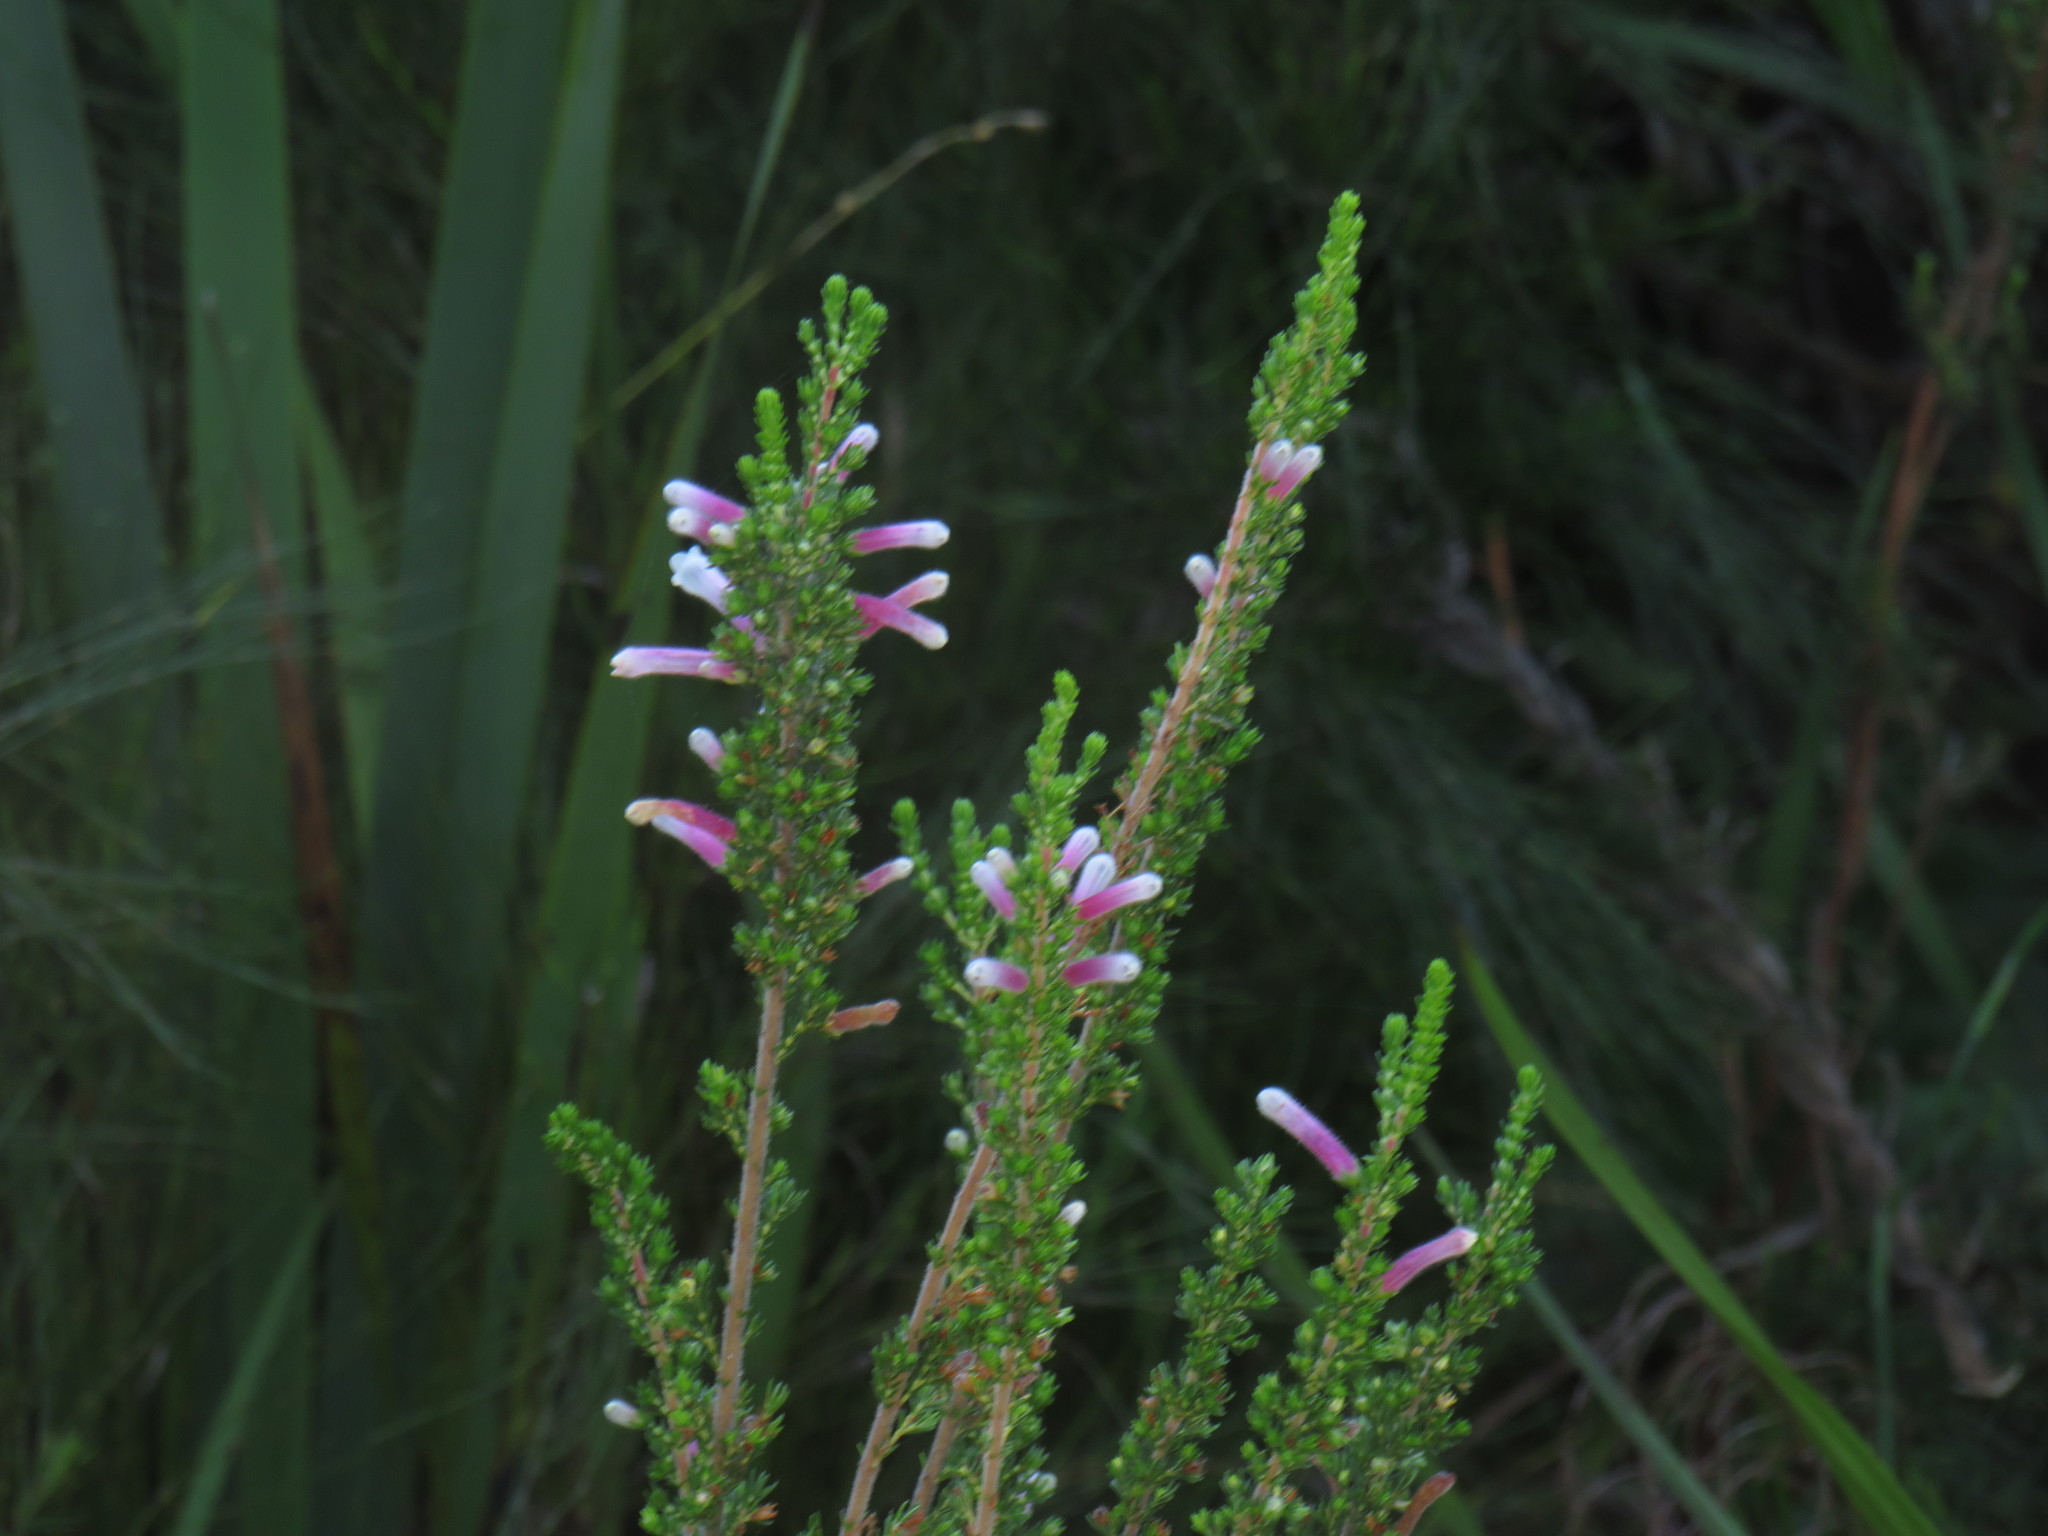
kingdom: Plantae
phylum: Tracheophyta
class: Magnoliopsida
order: Ericales
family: Ericaceae
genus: Erica
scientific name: Erica perspicua
